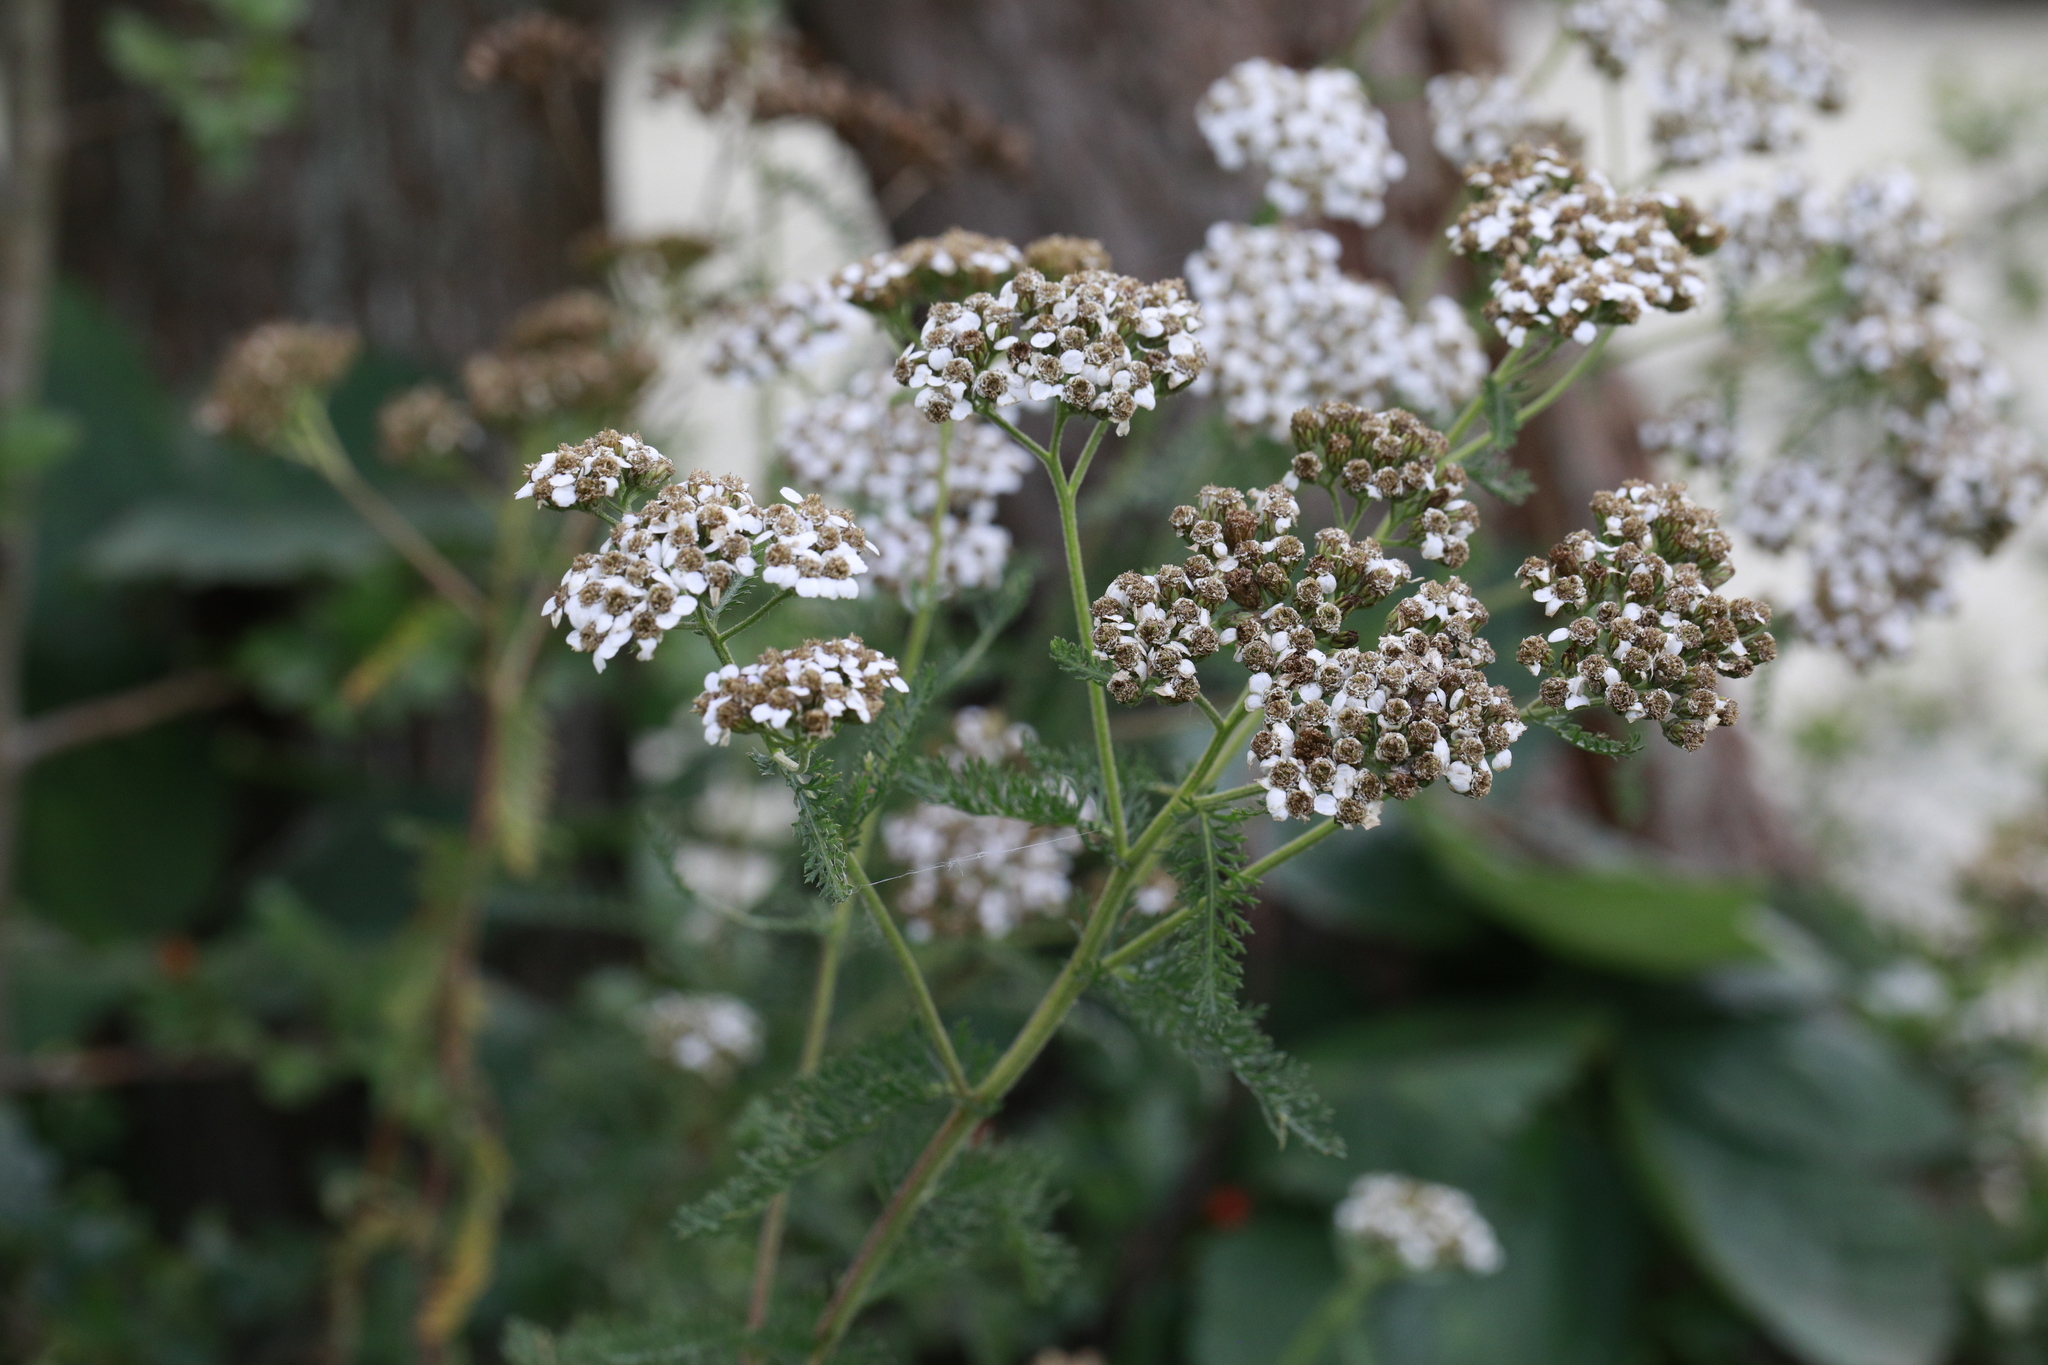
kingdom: Plantae
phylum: Tracheophyta
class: Magnoliopsida
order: Asterales
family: Asteraceae
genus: Achillea
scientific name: Achillea millefolium
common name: Yarrow
